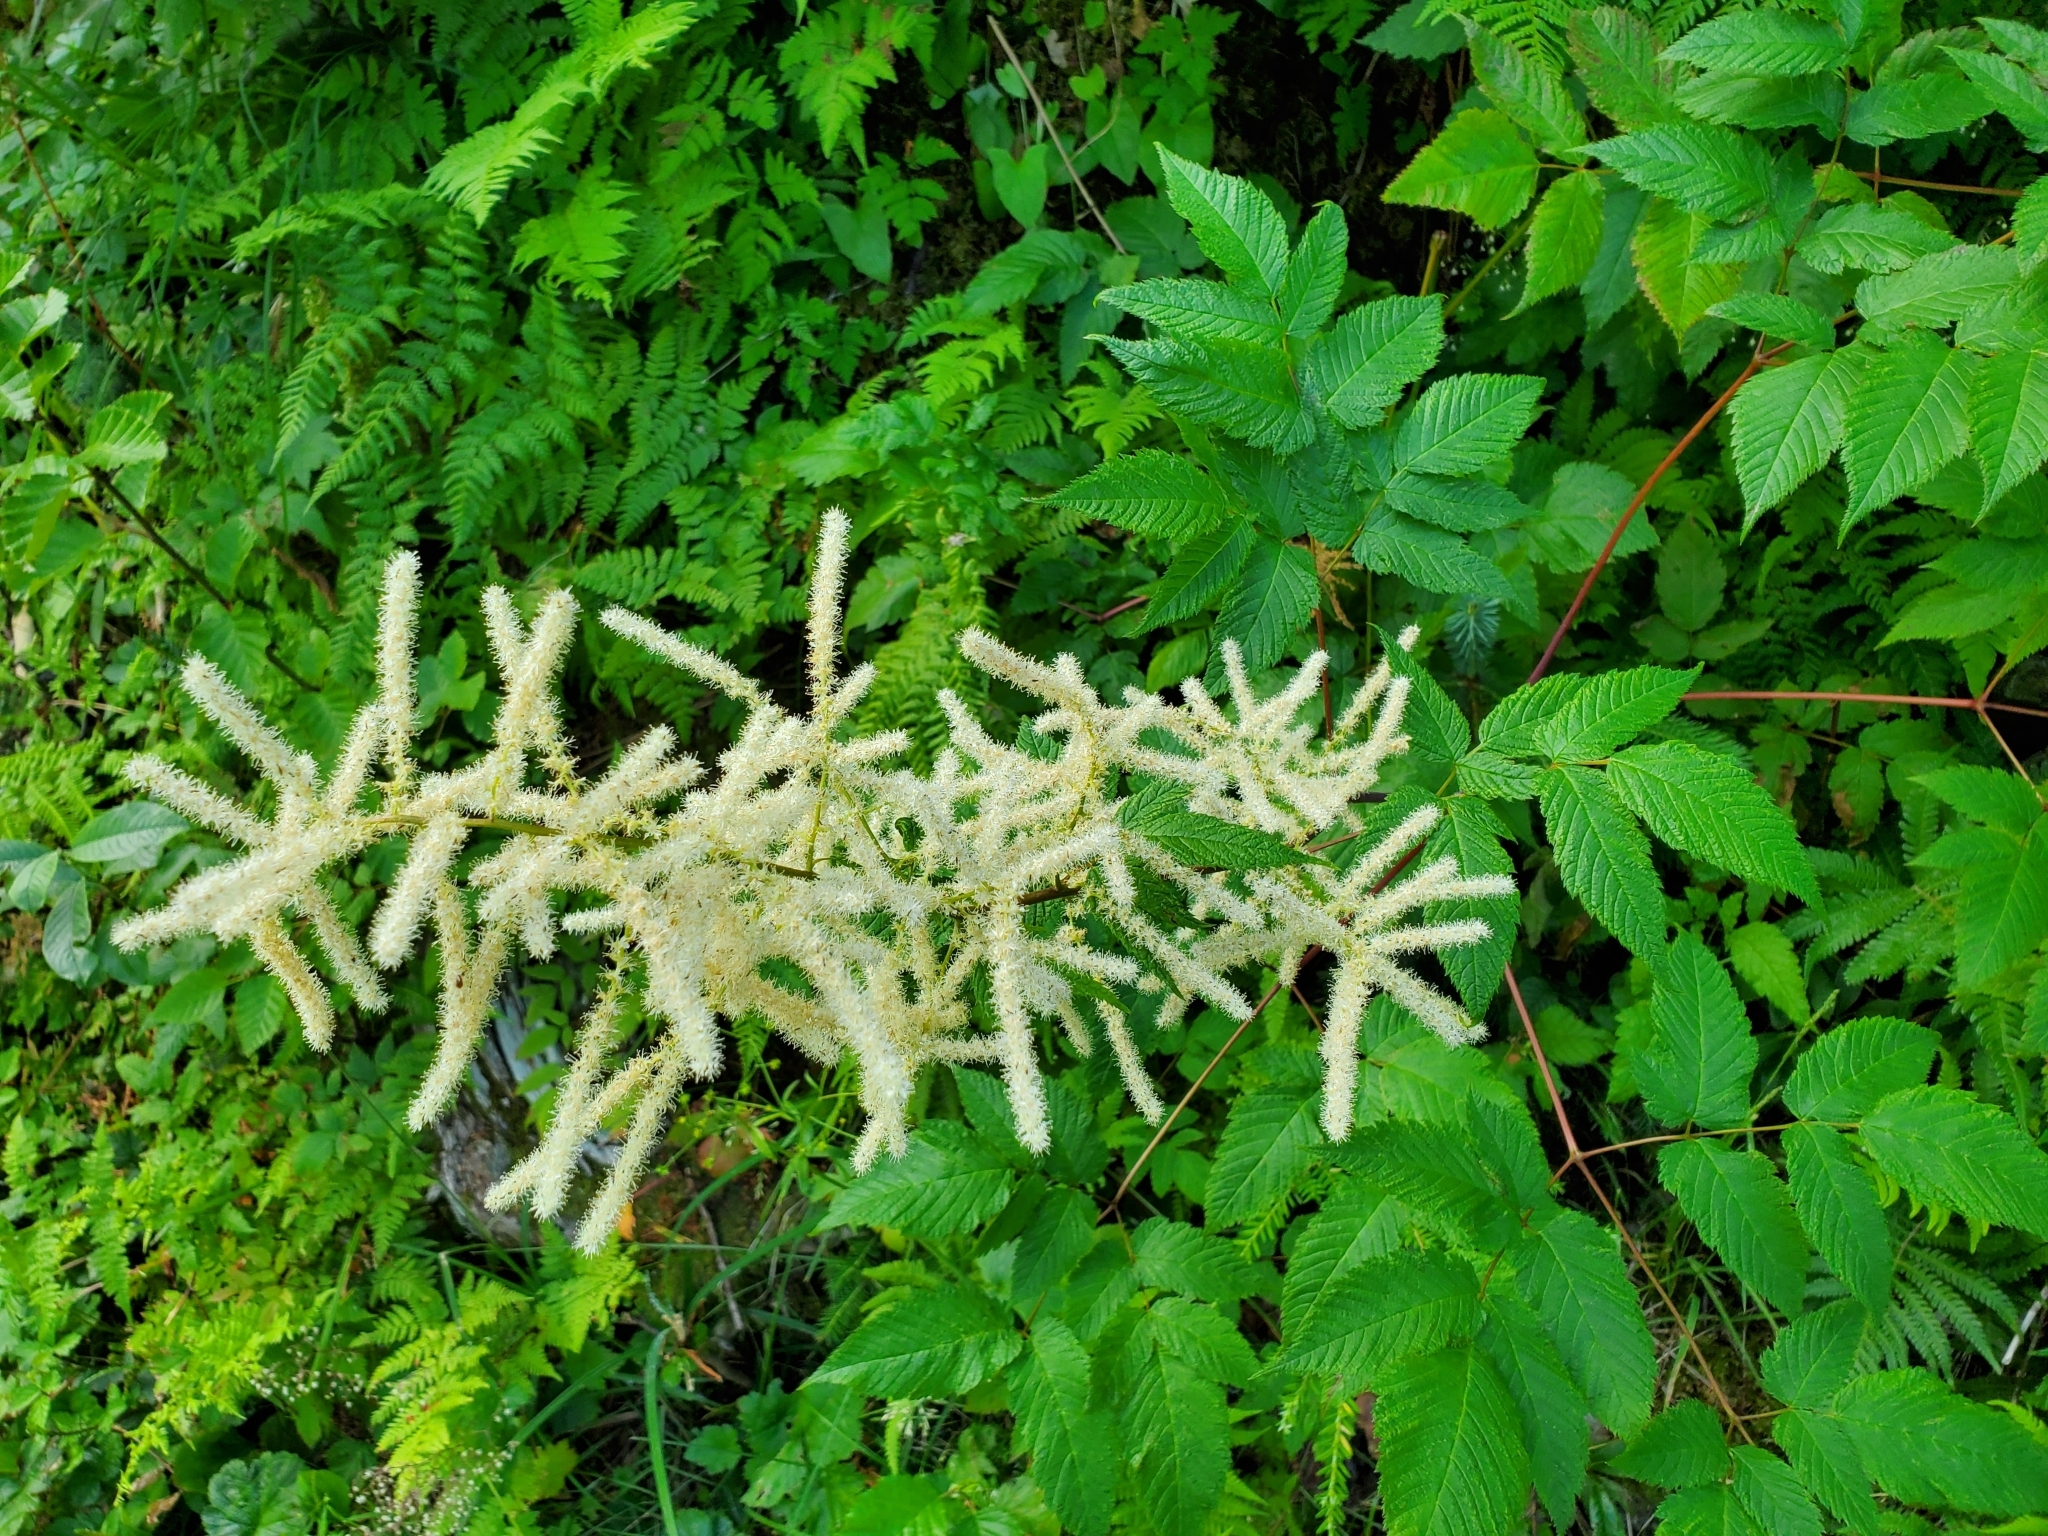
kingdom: Plantae
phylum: Tracheophyta
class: Magnoliopsida
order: Rosales
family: Rosaceae
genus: Aruncus
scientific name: Aruncus dioicus
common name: Buck's-beard
